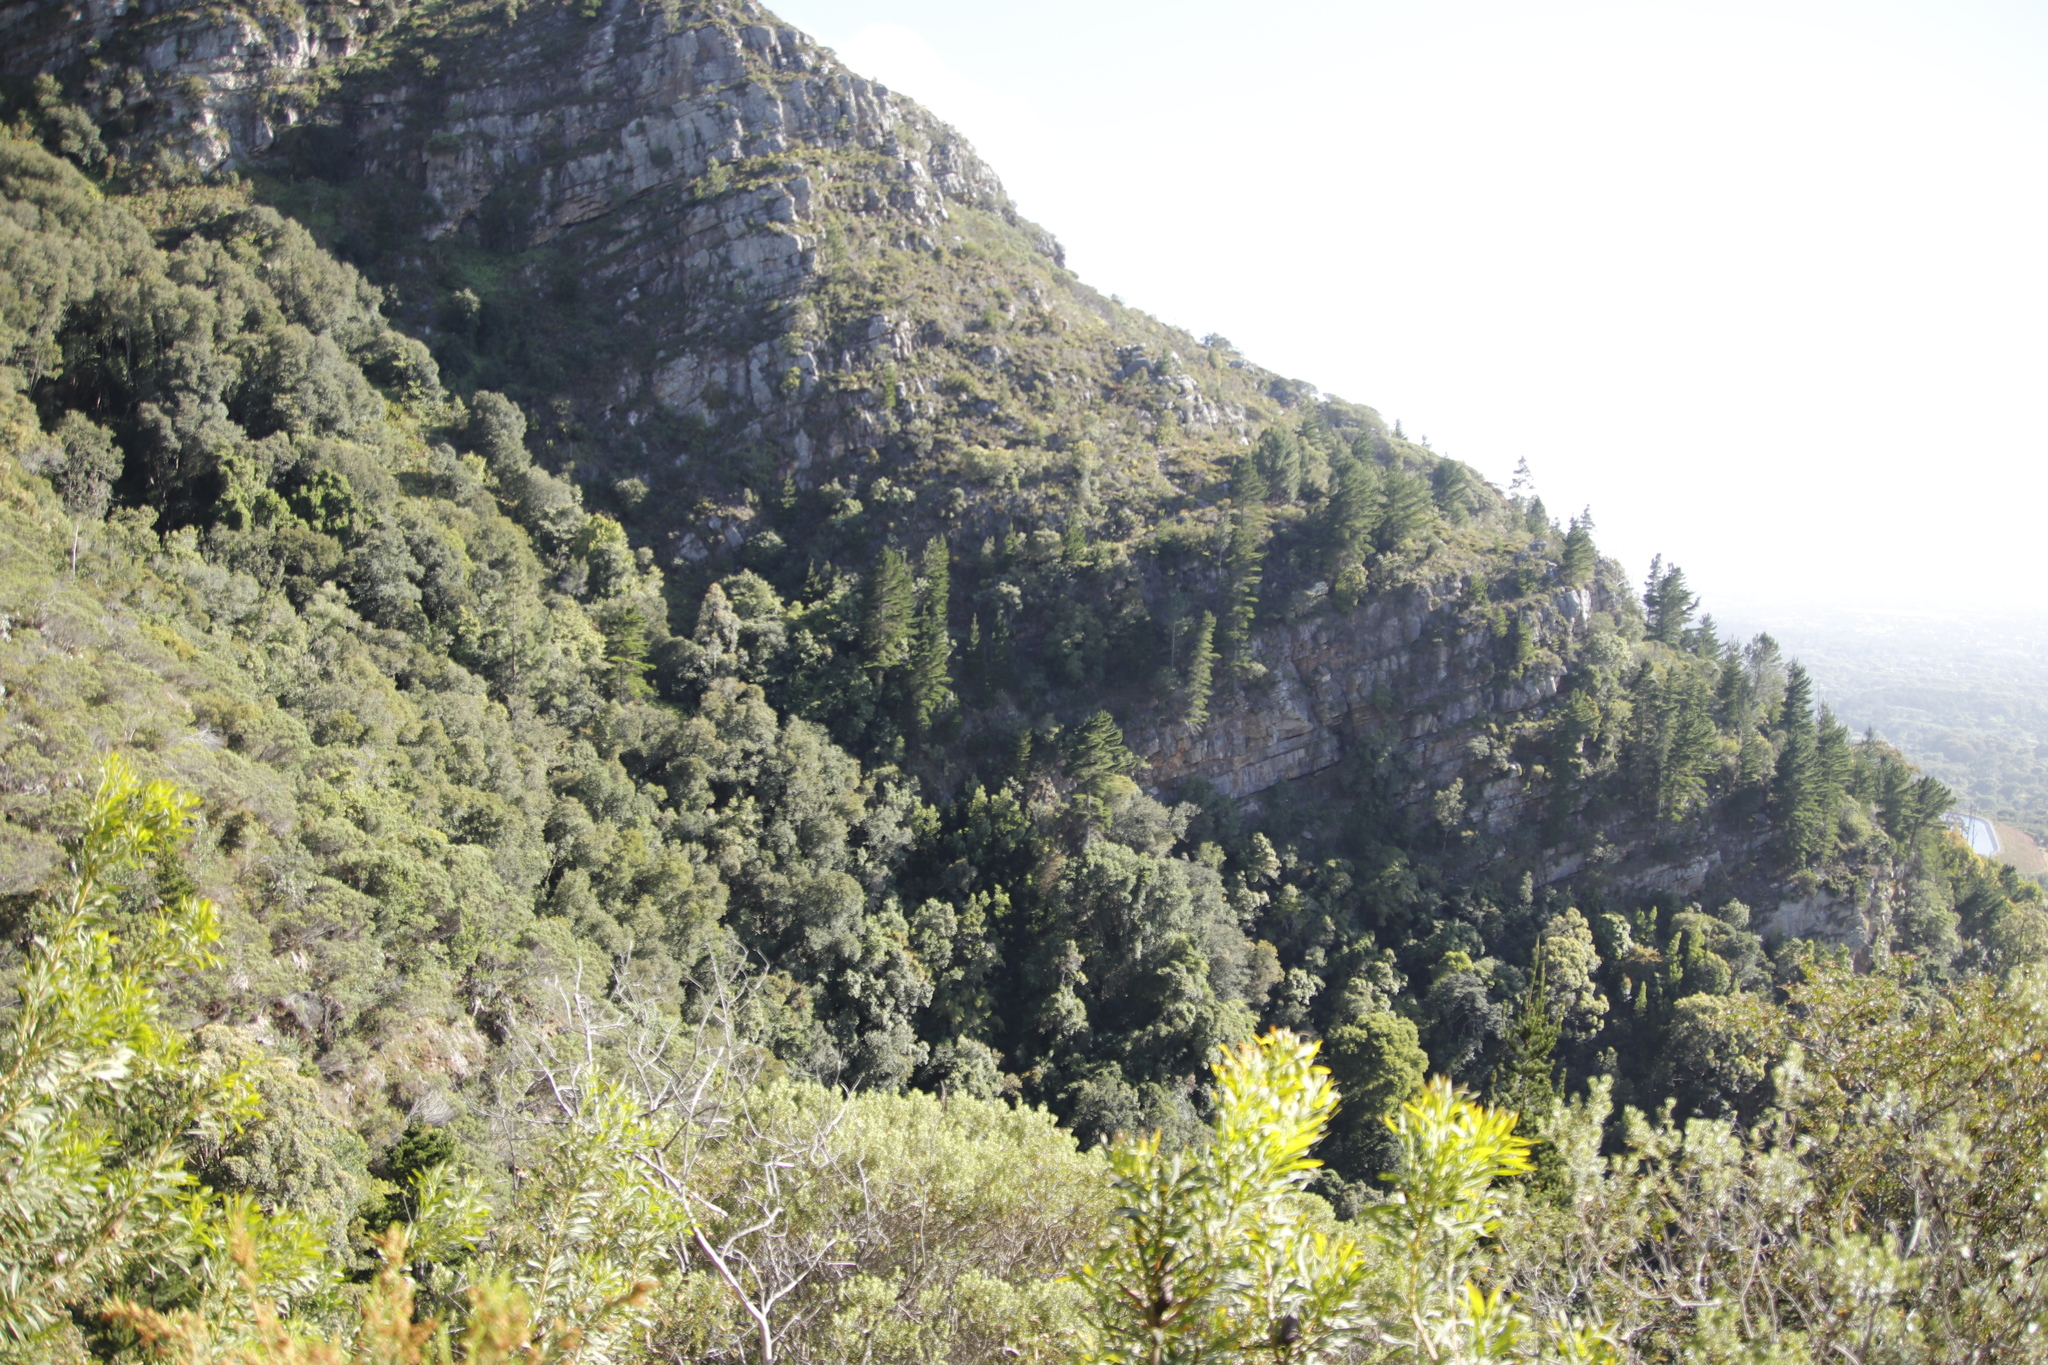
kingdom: Plantae
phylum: Tracheophyta
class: Pinopsida
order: Pinales
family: Pinaceae
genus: Pinus
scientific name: Pinus radiata
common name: Monterey pine
